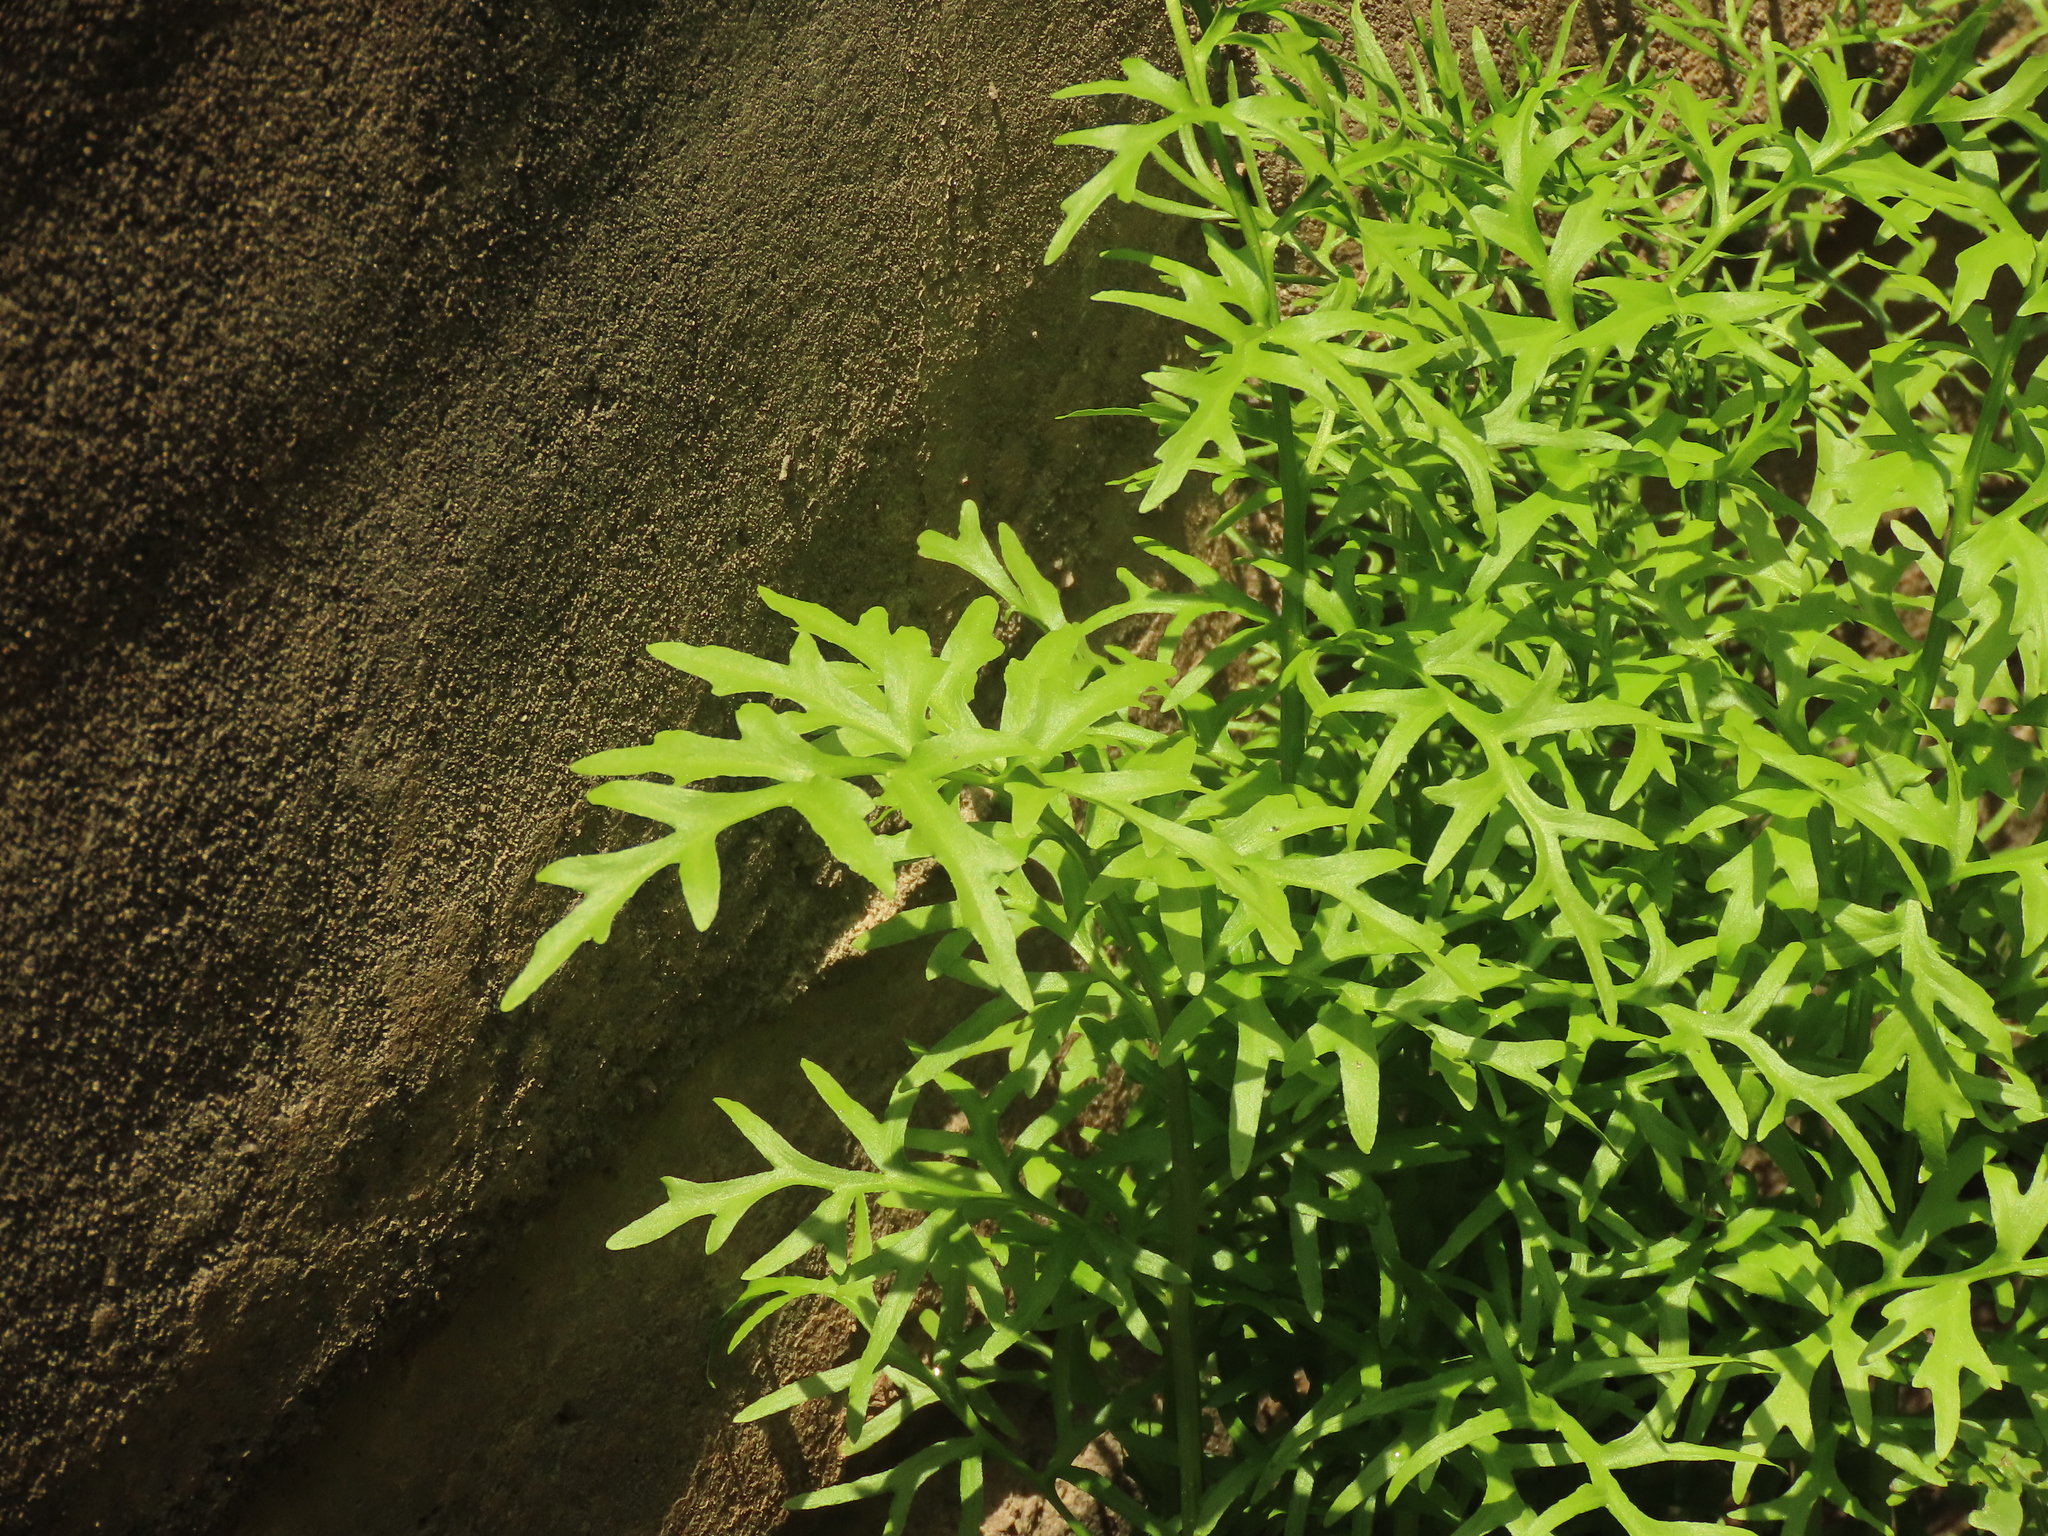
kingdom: Plantae
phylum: Tracheophyta
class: Polypodiopsida
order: Polypodiales
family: Pteridaceae
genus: Ceratopteris
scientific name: Ceratopteris thalictroides
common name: Water fern
